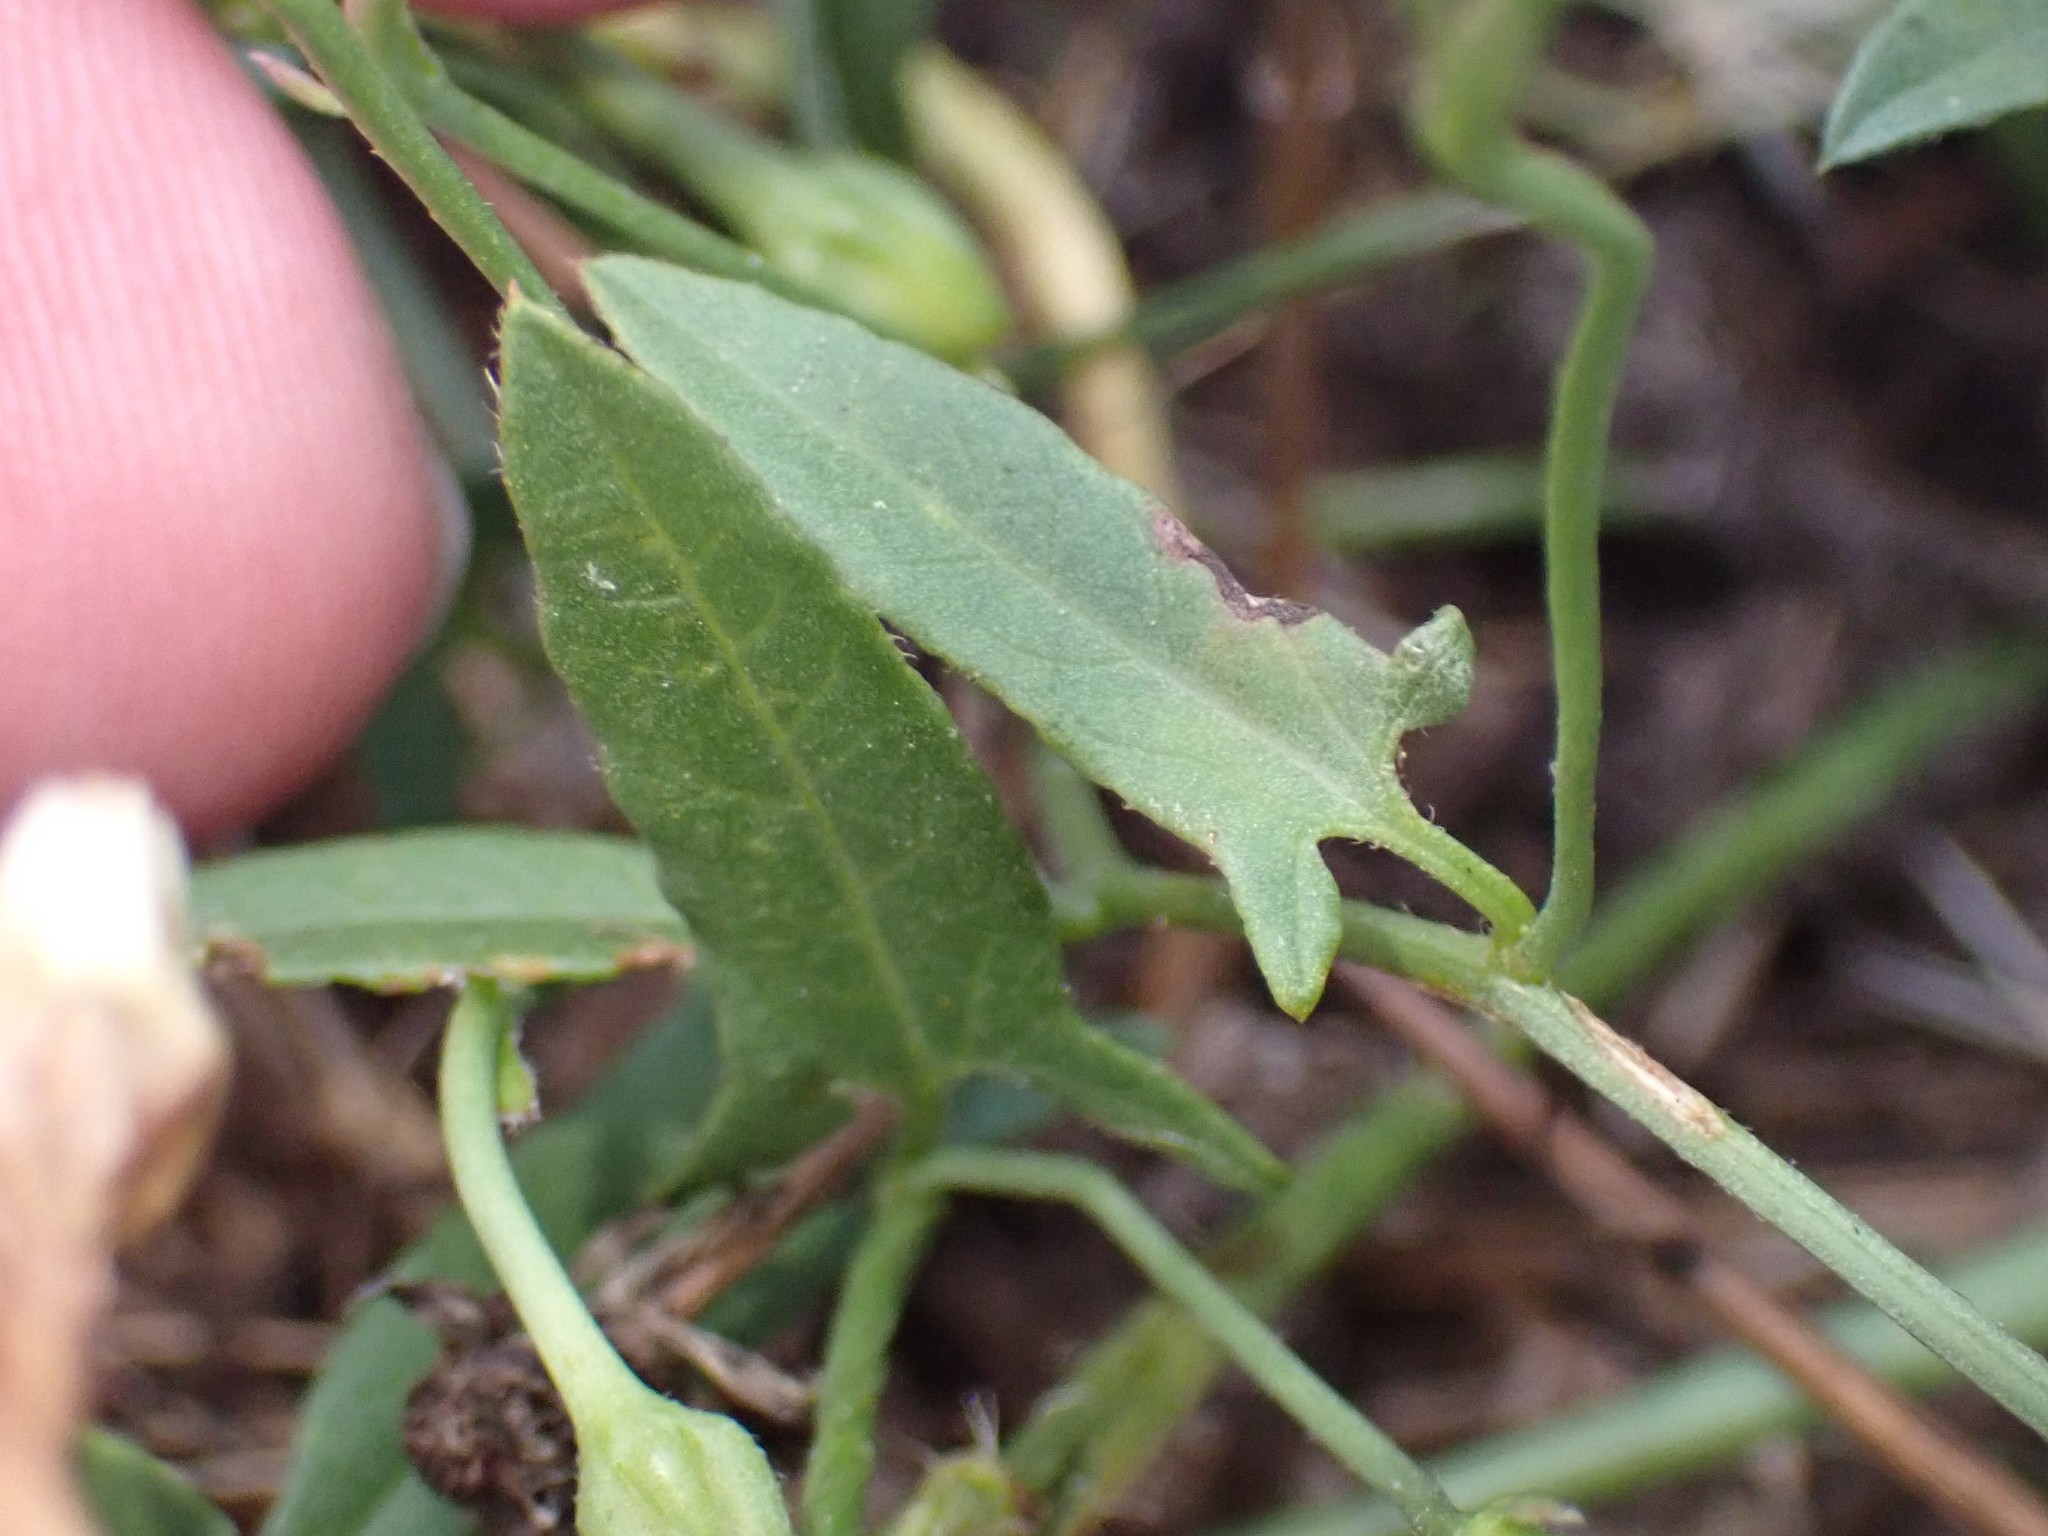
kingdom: Plantae
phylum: Tracheophyta
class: Magnoliopsida
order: Solanales
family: Convolvulaceae
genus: Convolvulus
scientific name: Convolvulus arvensis
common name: Field bindweed
